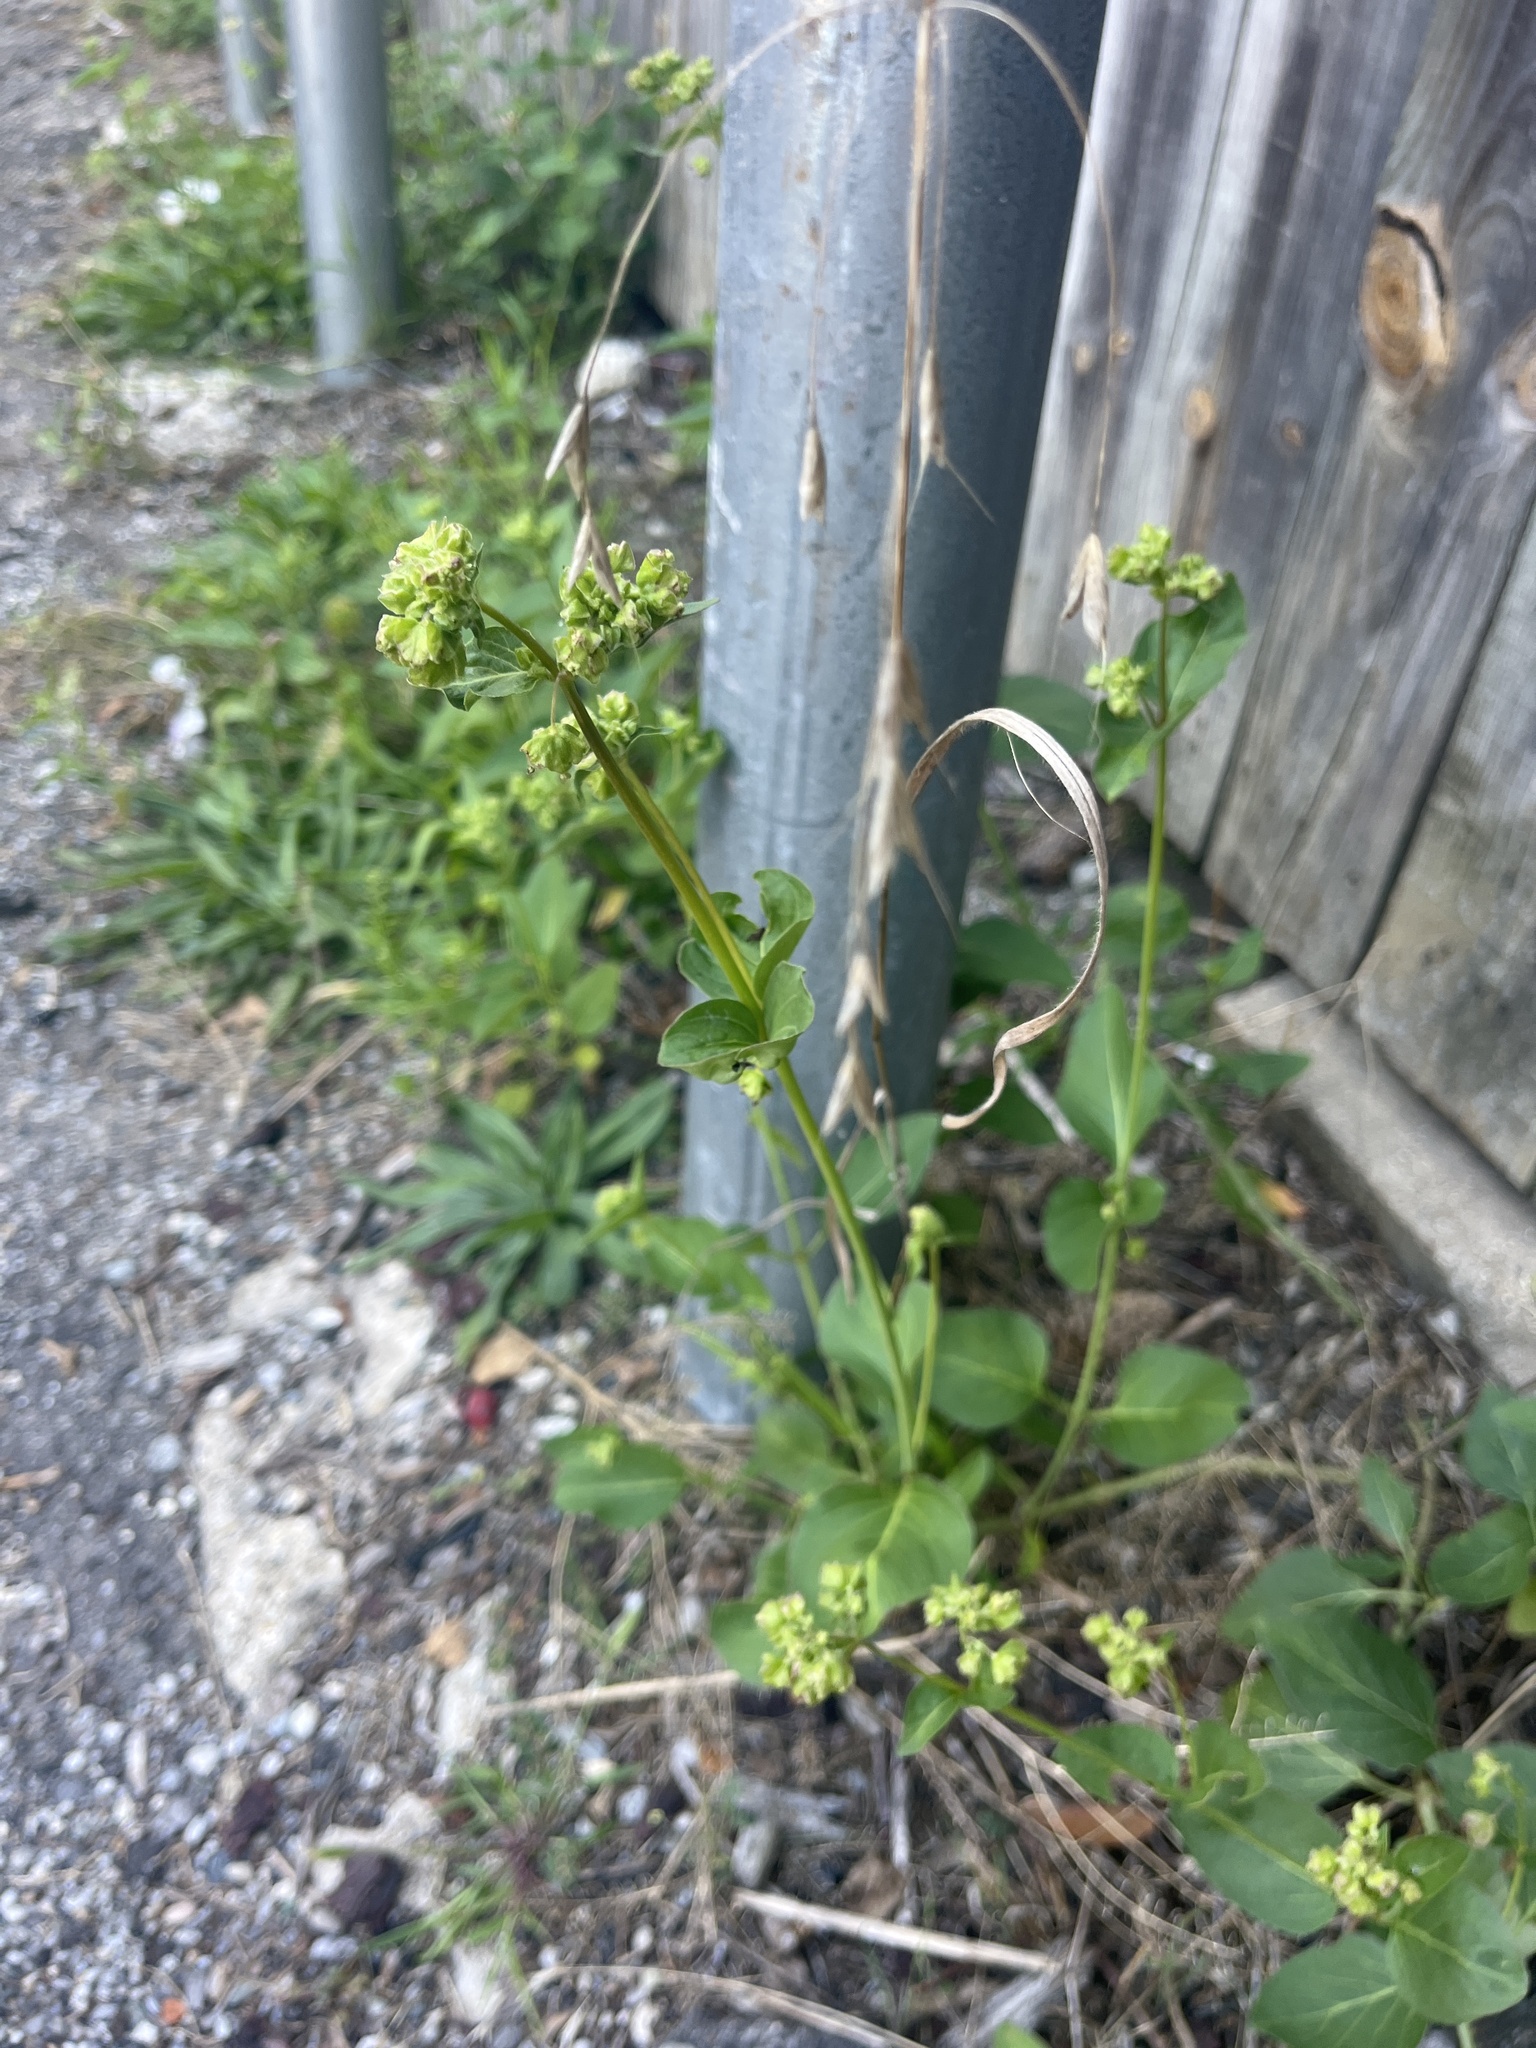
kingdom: Plantae
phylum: Tracheophyta
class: Magnoliopsida
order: Caryophyllales
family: Nyctaginaceae
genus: Mirabilis
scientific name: Mirabilis nyctaginea
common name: Umbrella wort
